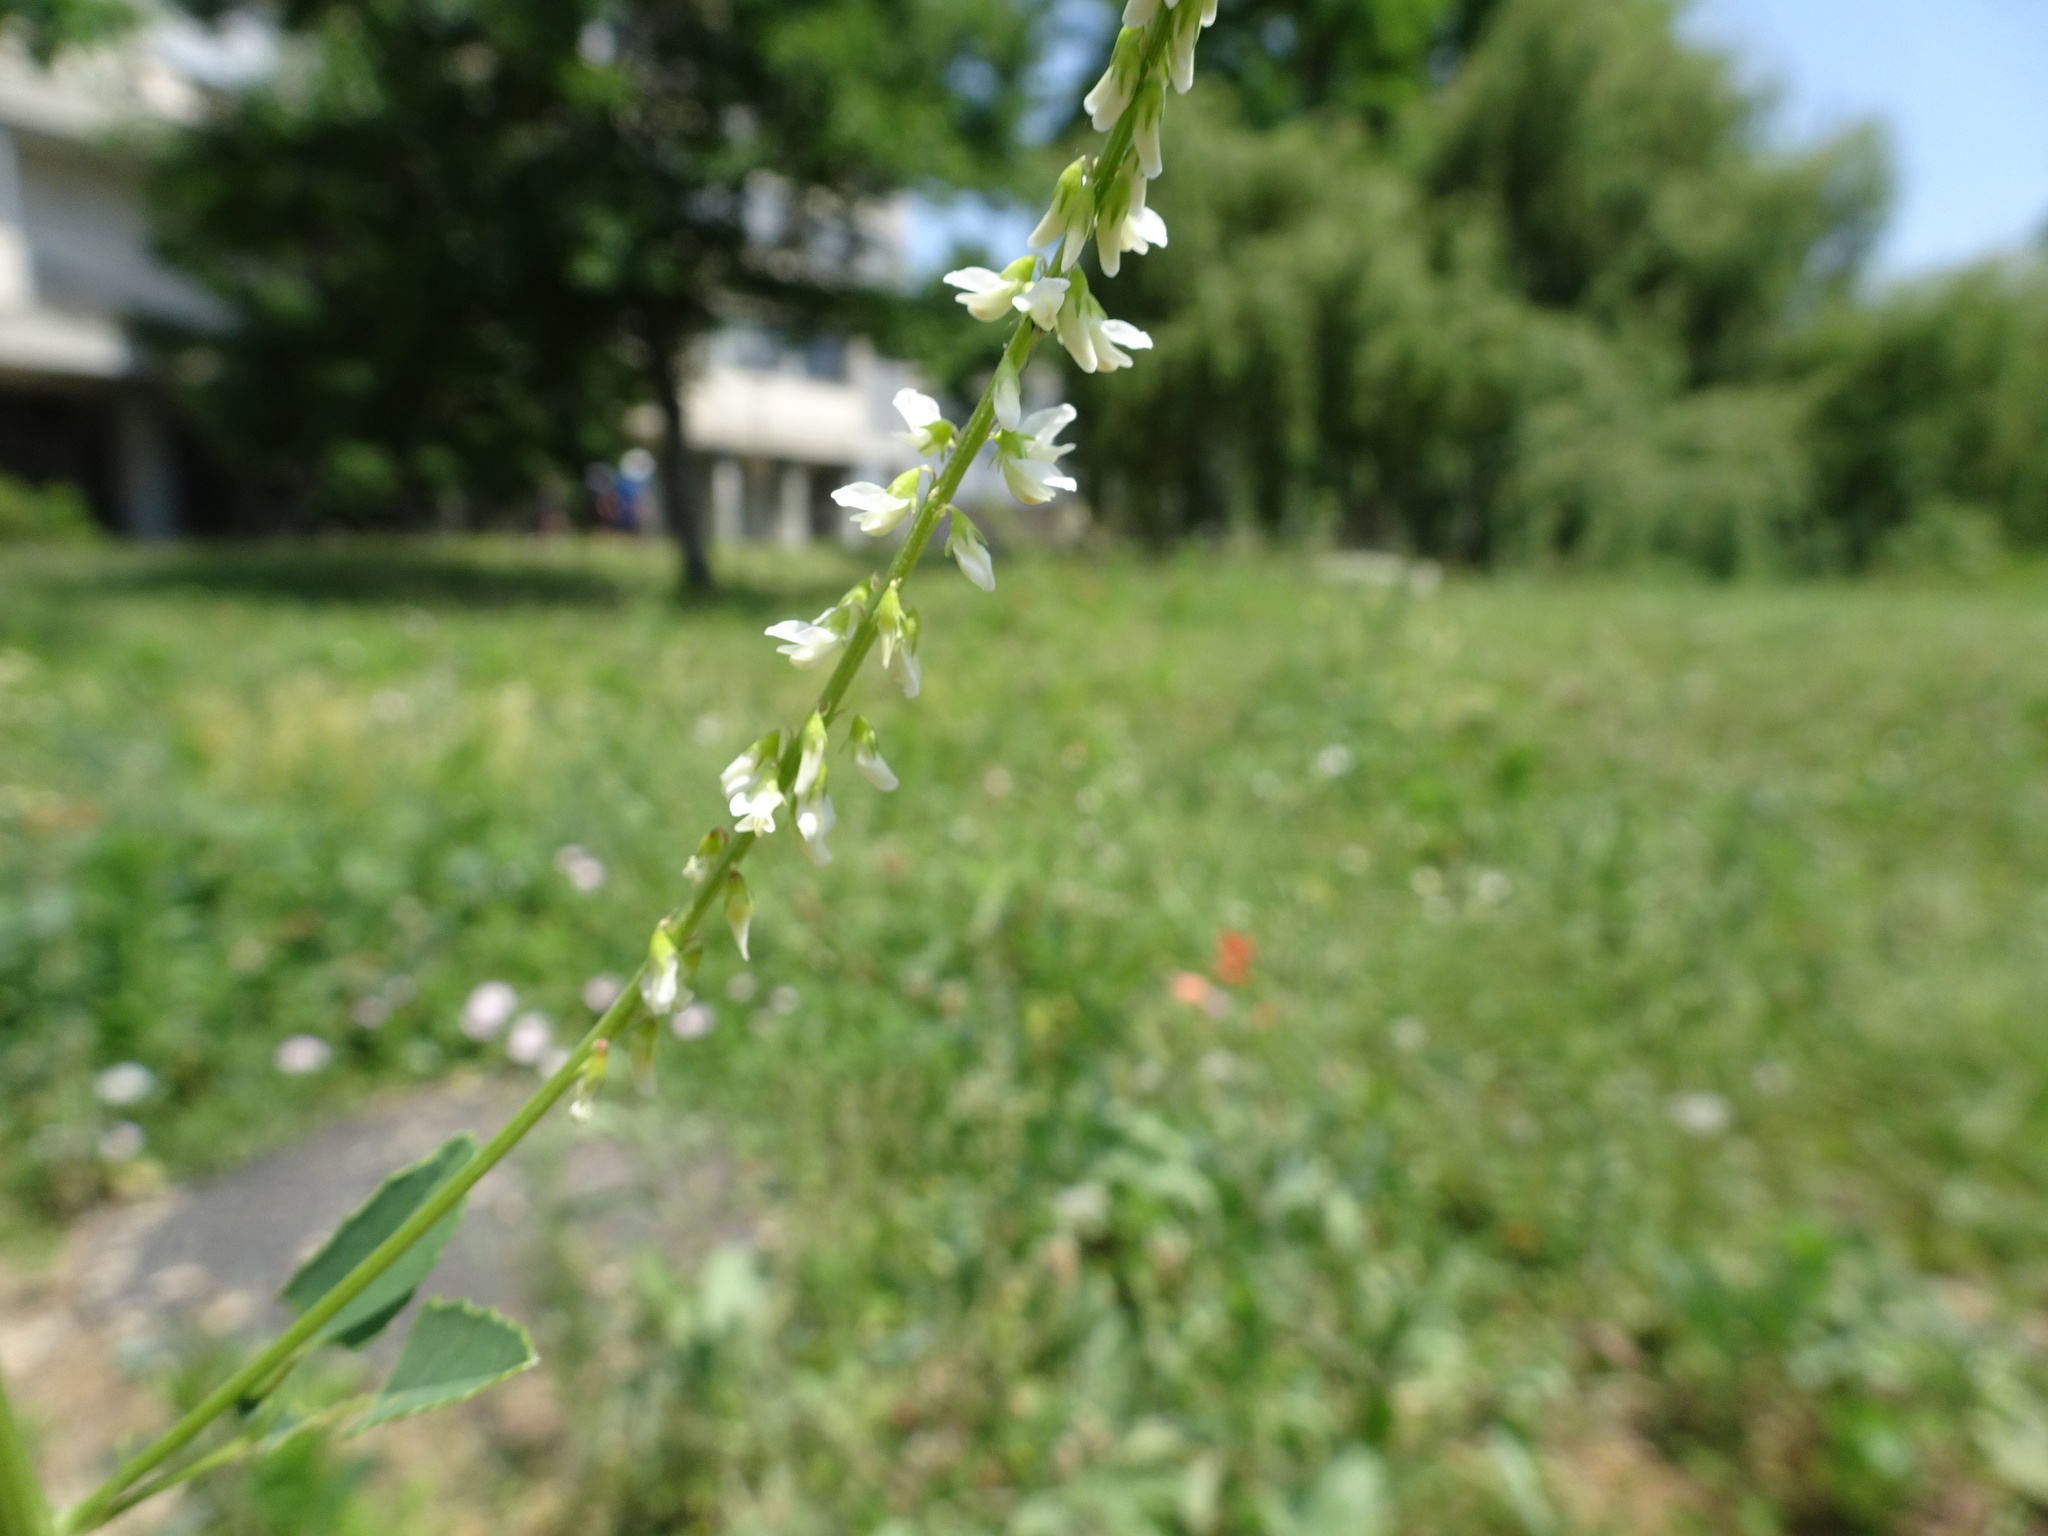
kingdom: Plantae
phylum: Tracheophyta
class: Magnoliopsida
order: Fabales
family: Fabaceae
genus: Melilotus
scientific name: Melilotus albus
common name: White melilot
